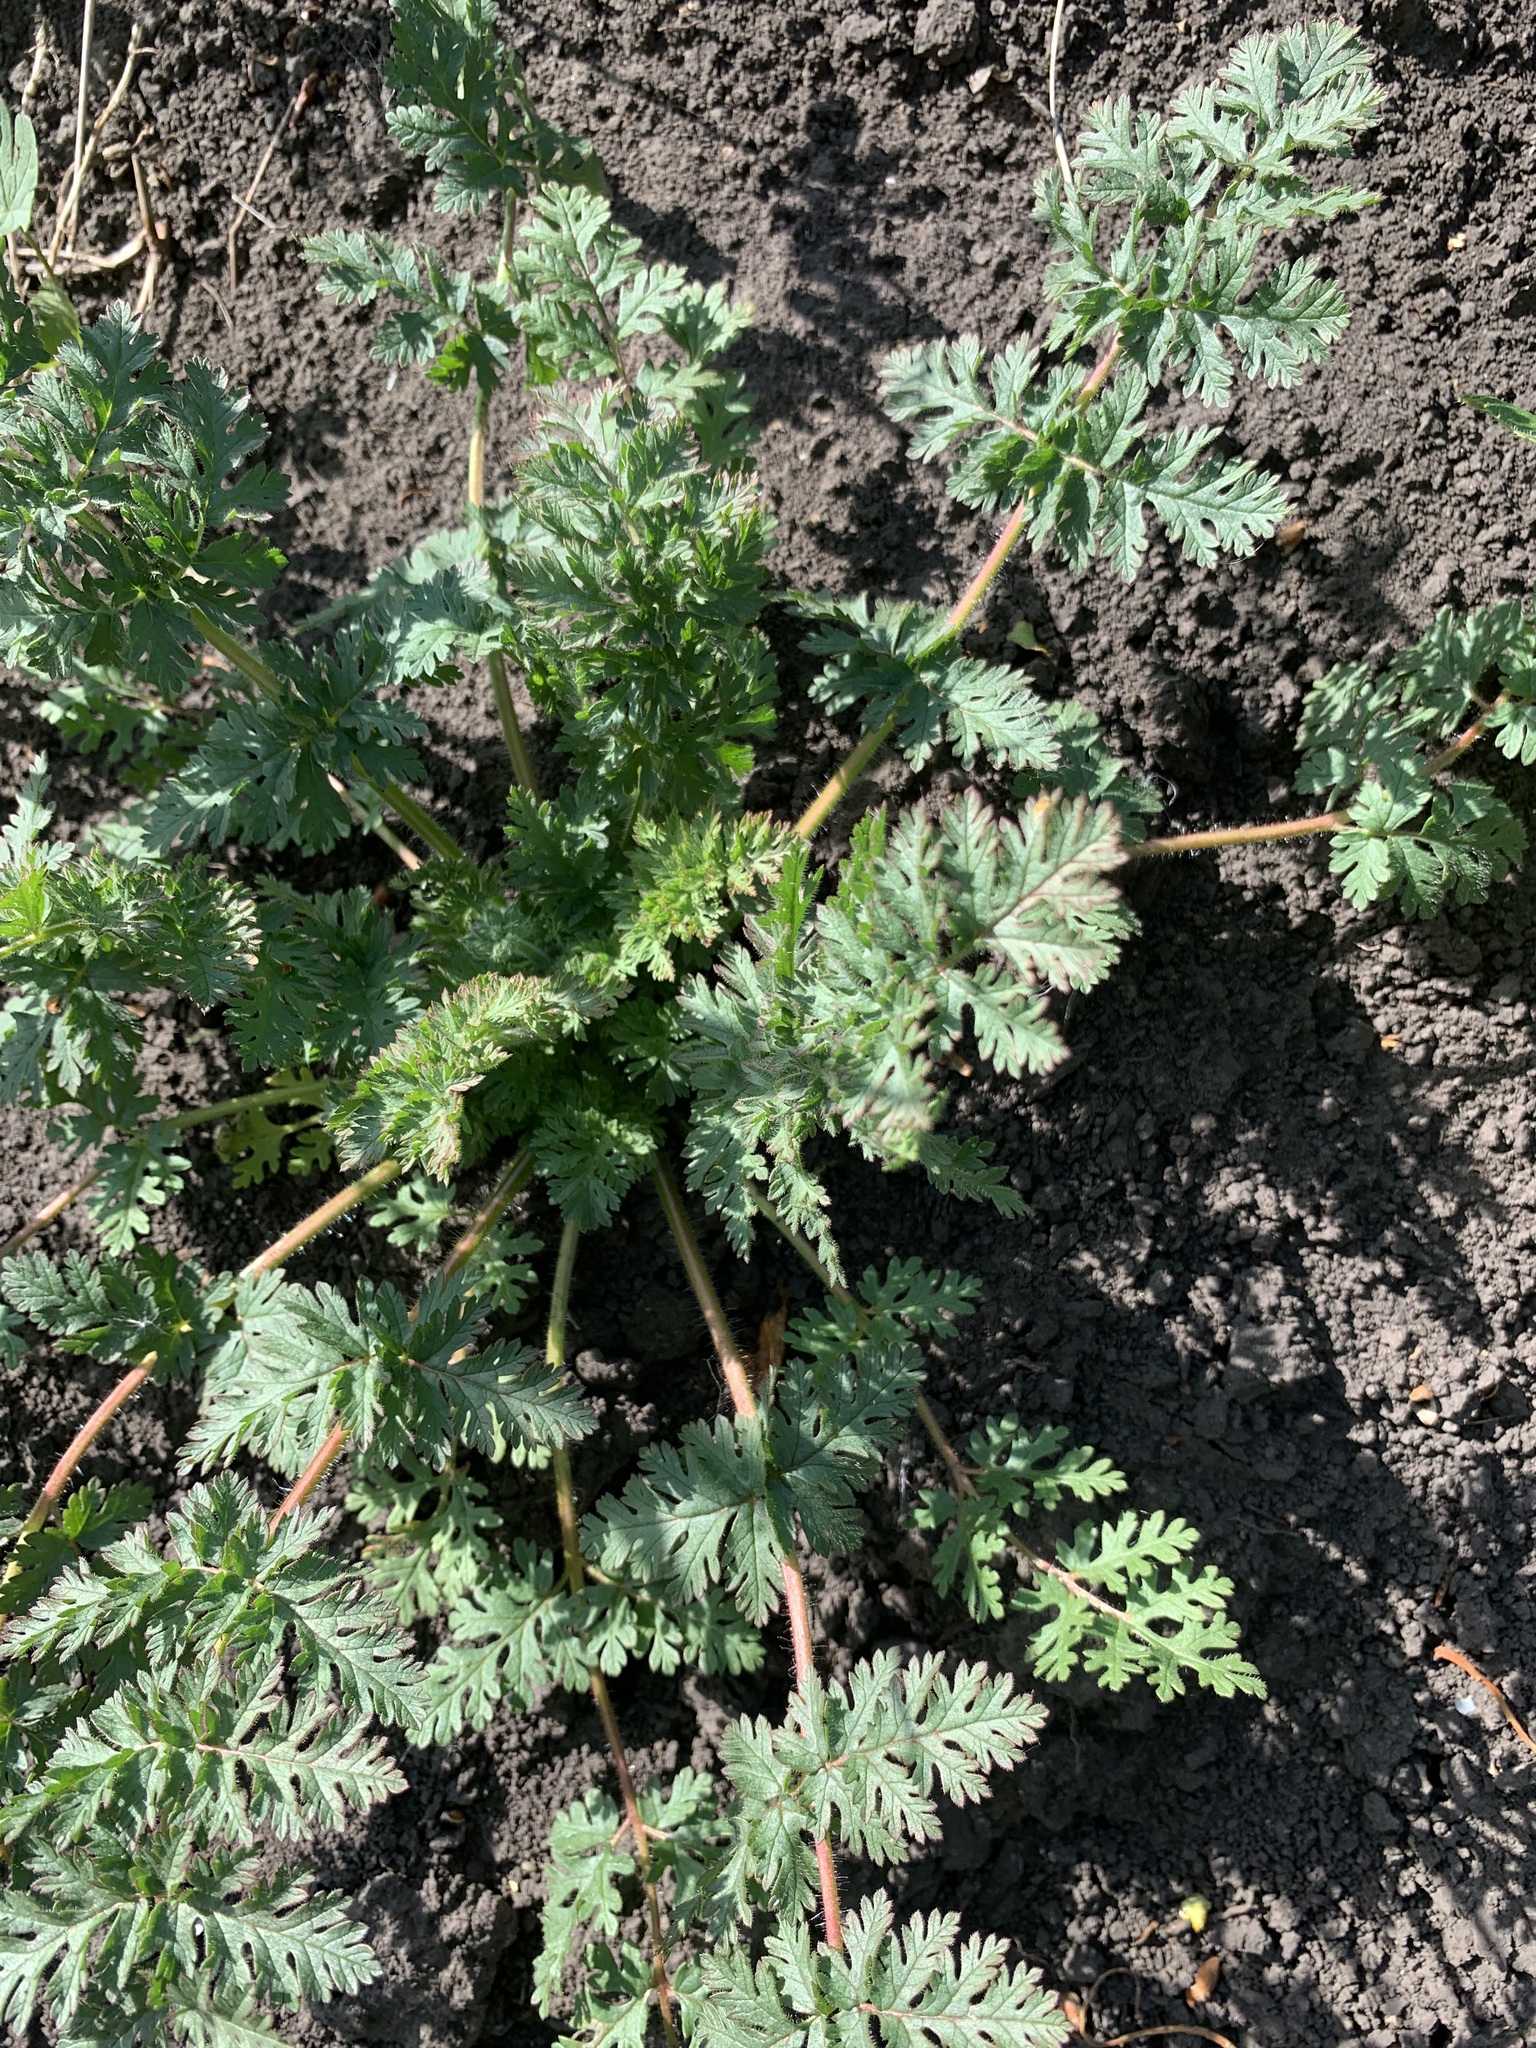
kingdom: Plantae
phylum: Tracheophyta
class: Magnoliopsida
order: Geraniales
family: Geraniaceae
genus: Erodium
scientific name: Erodium cicutarium
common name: Common stork's-bill
